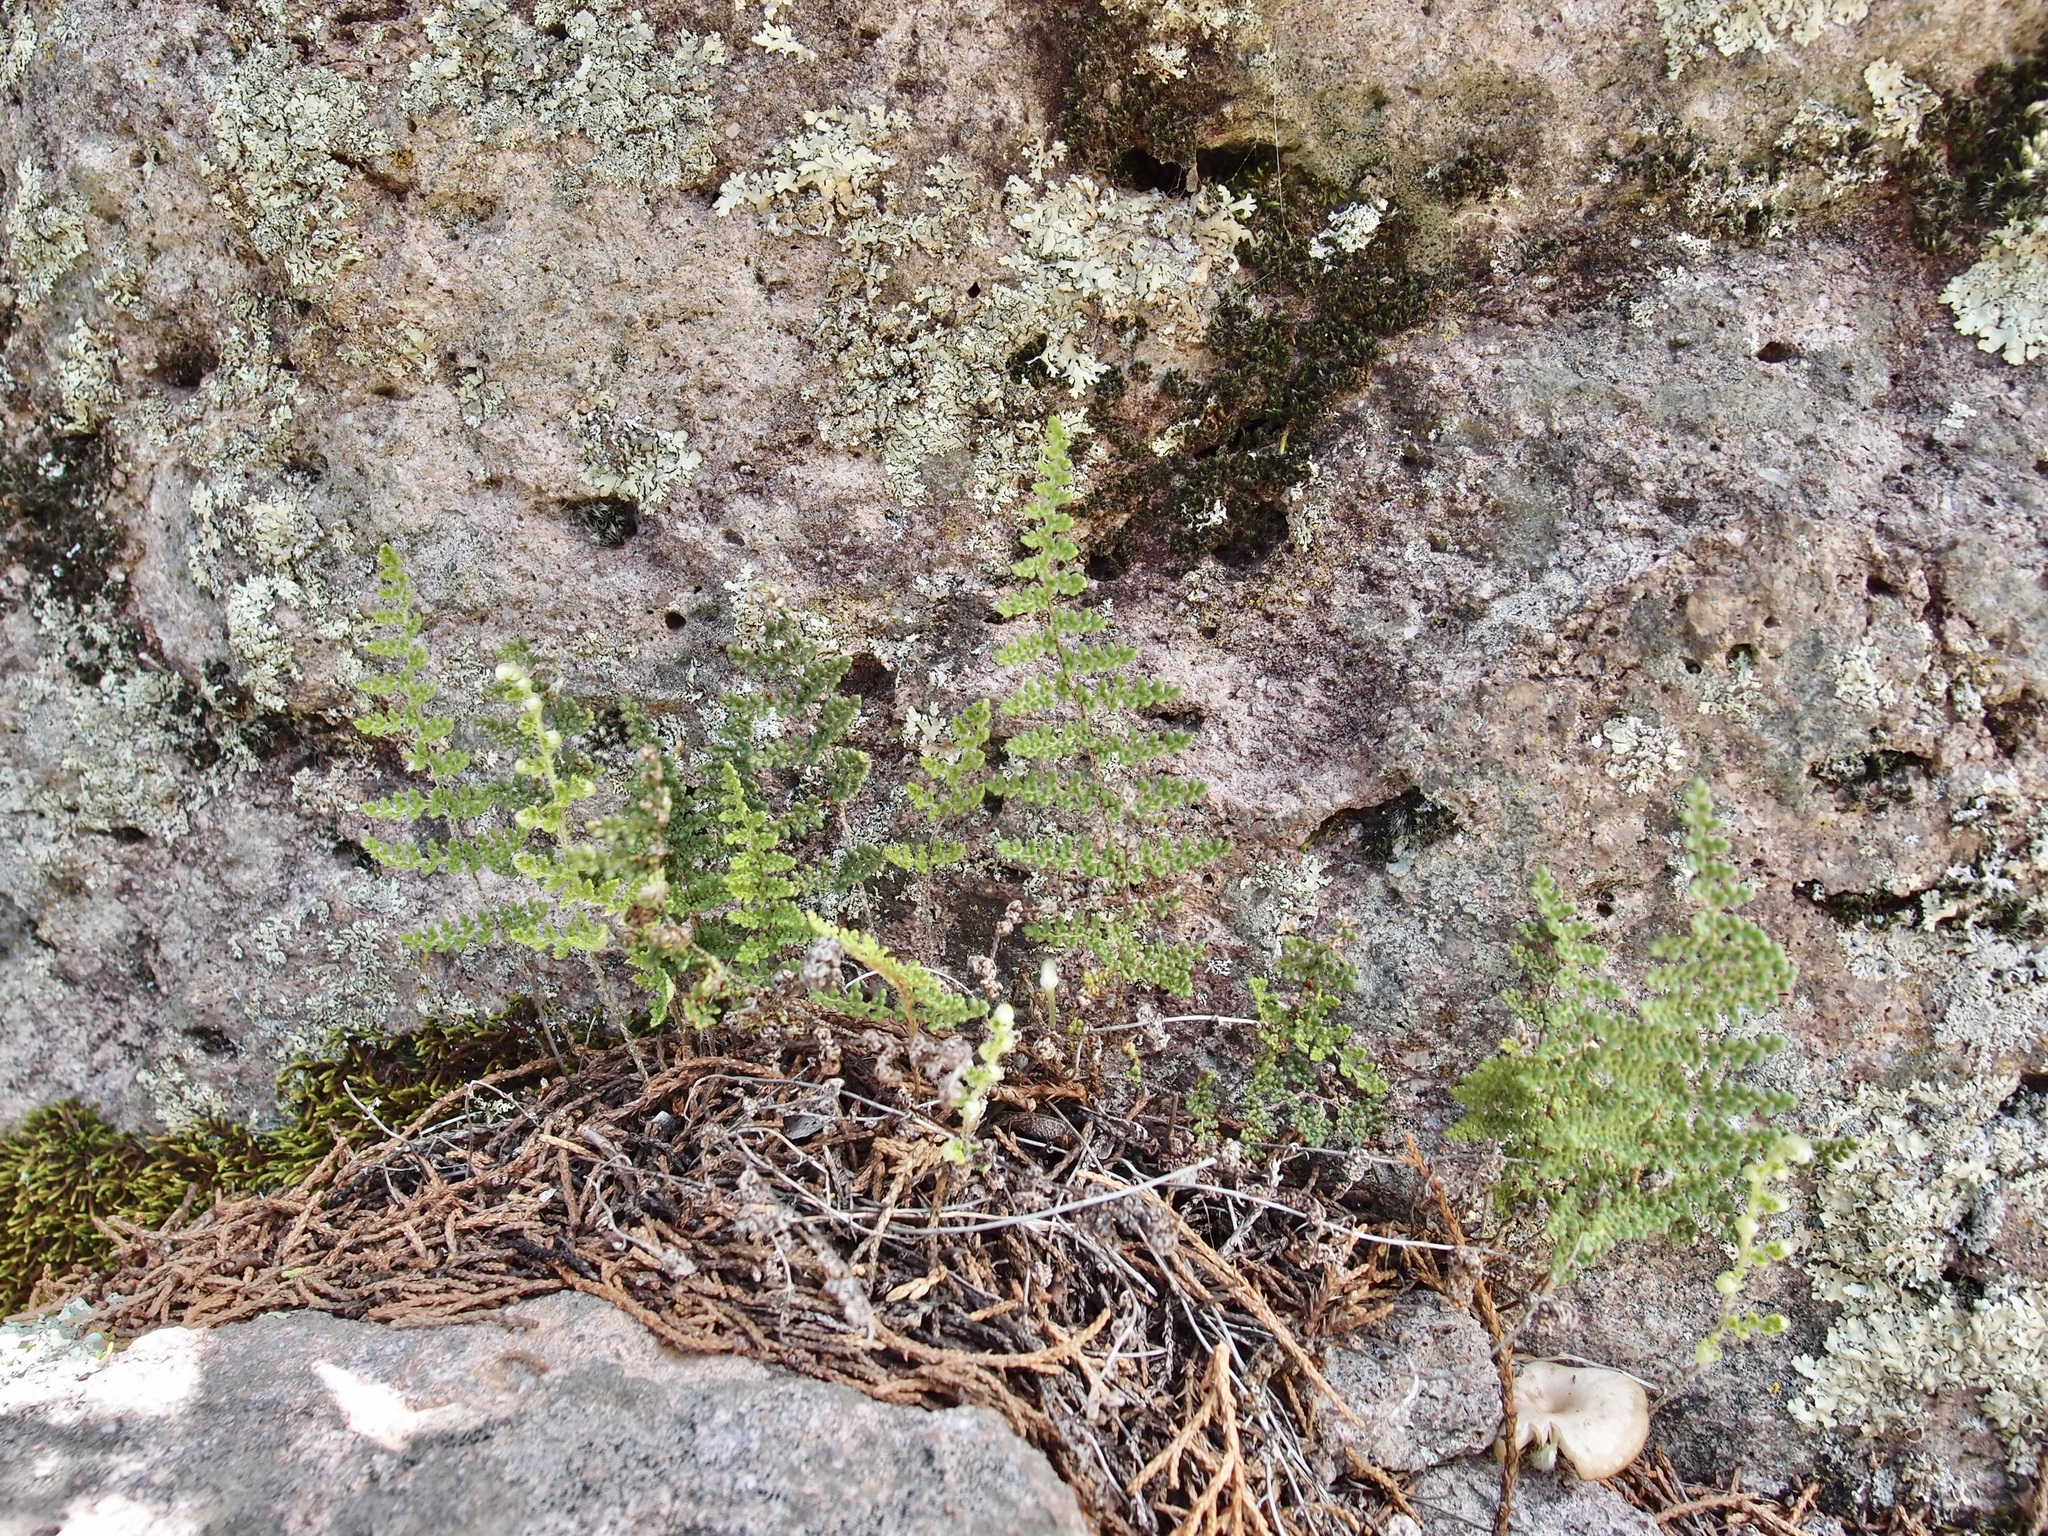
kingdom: Plantae
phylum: Tracheophyta
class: Polypodiopsida
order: Polypodiales
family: Pteridaceae
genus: Myriopteris
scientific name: Myriopteris fendleri
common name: Fendler's lip fern
